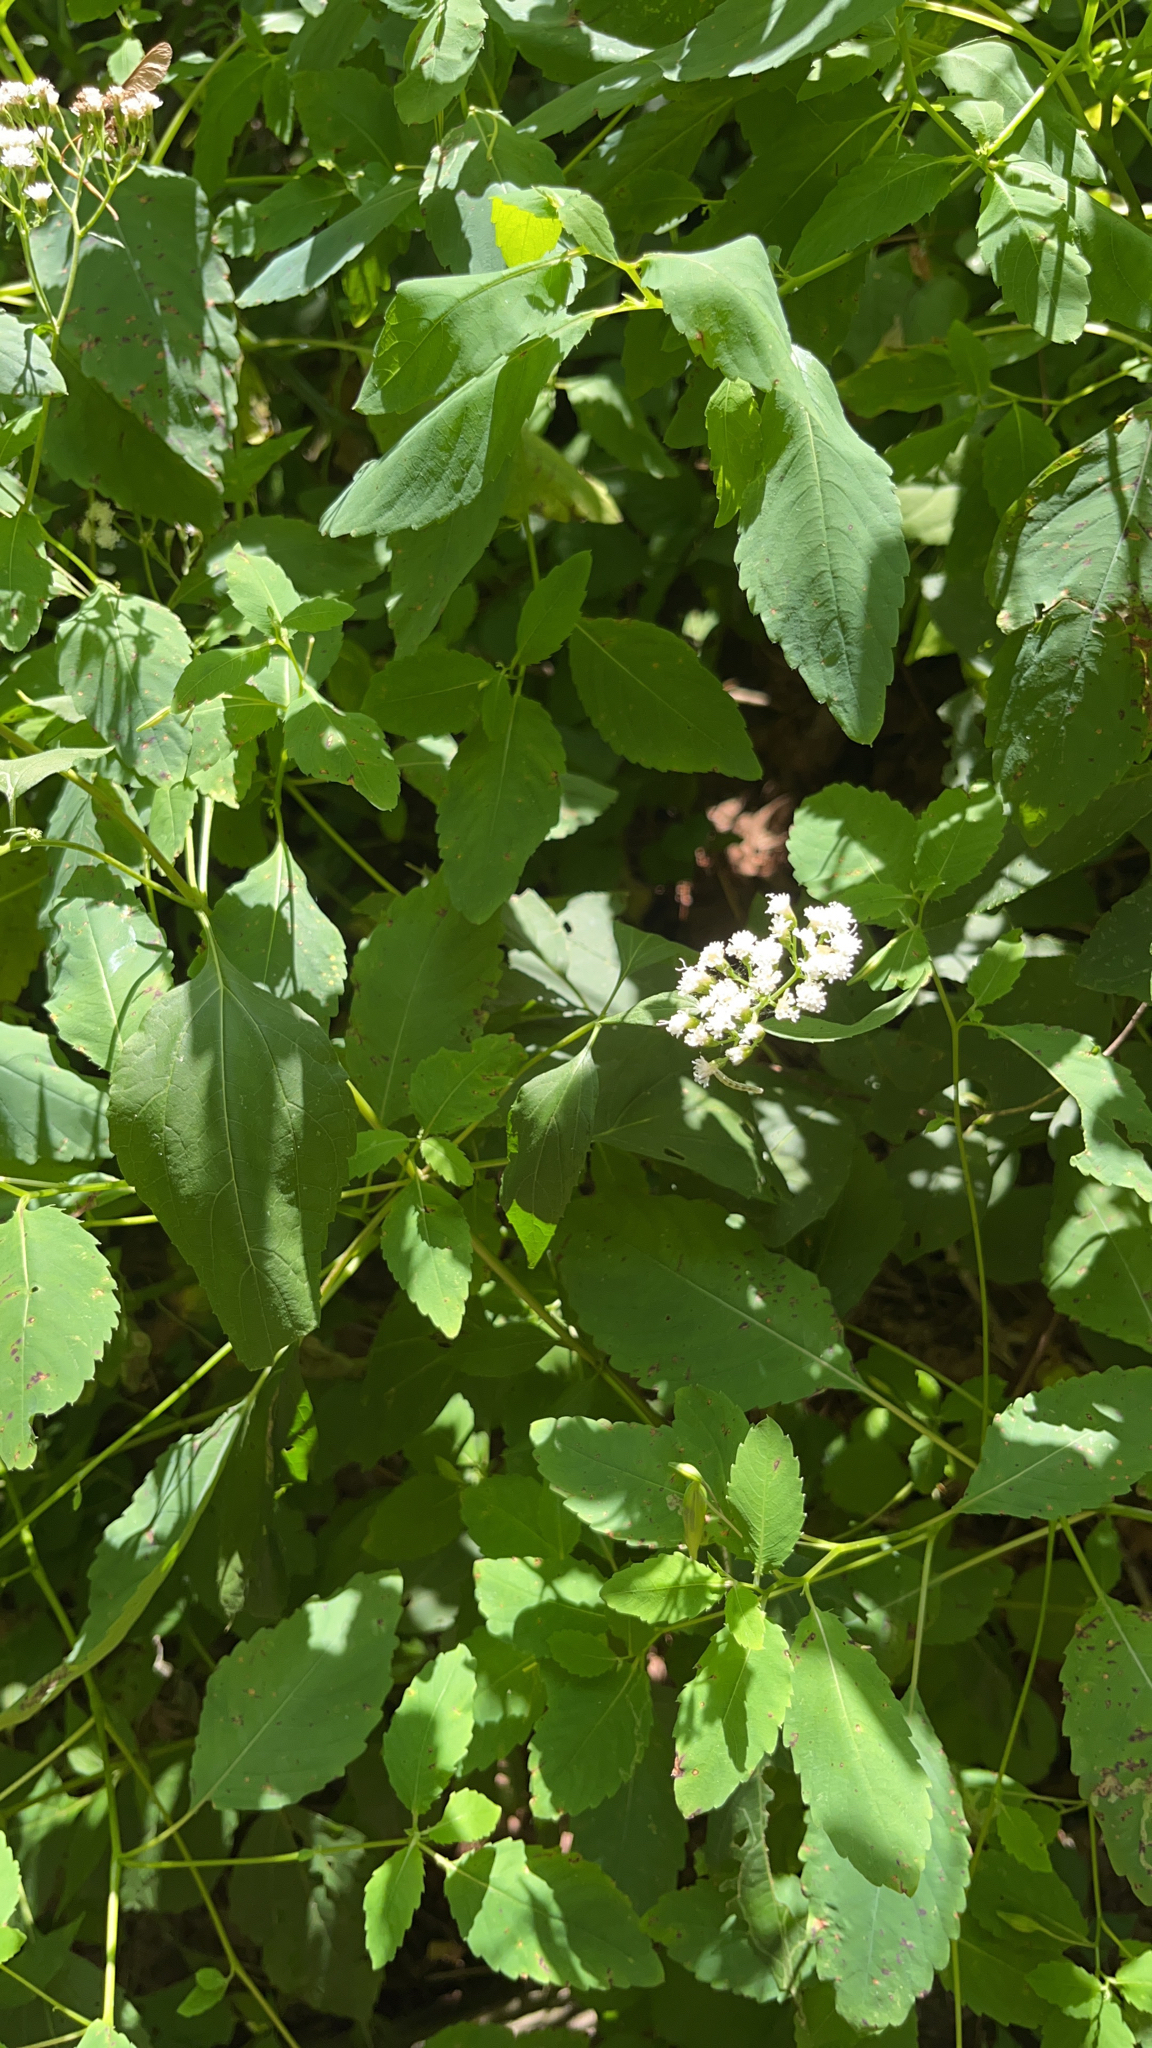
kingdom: Plantae
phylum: Tracheophyta
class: Magnoliopsida
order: Asterales
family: Asteraceae
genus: Ageratina
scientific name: Ageratina altissima
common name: White snakeroot
